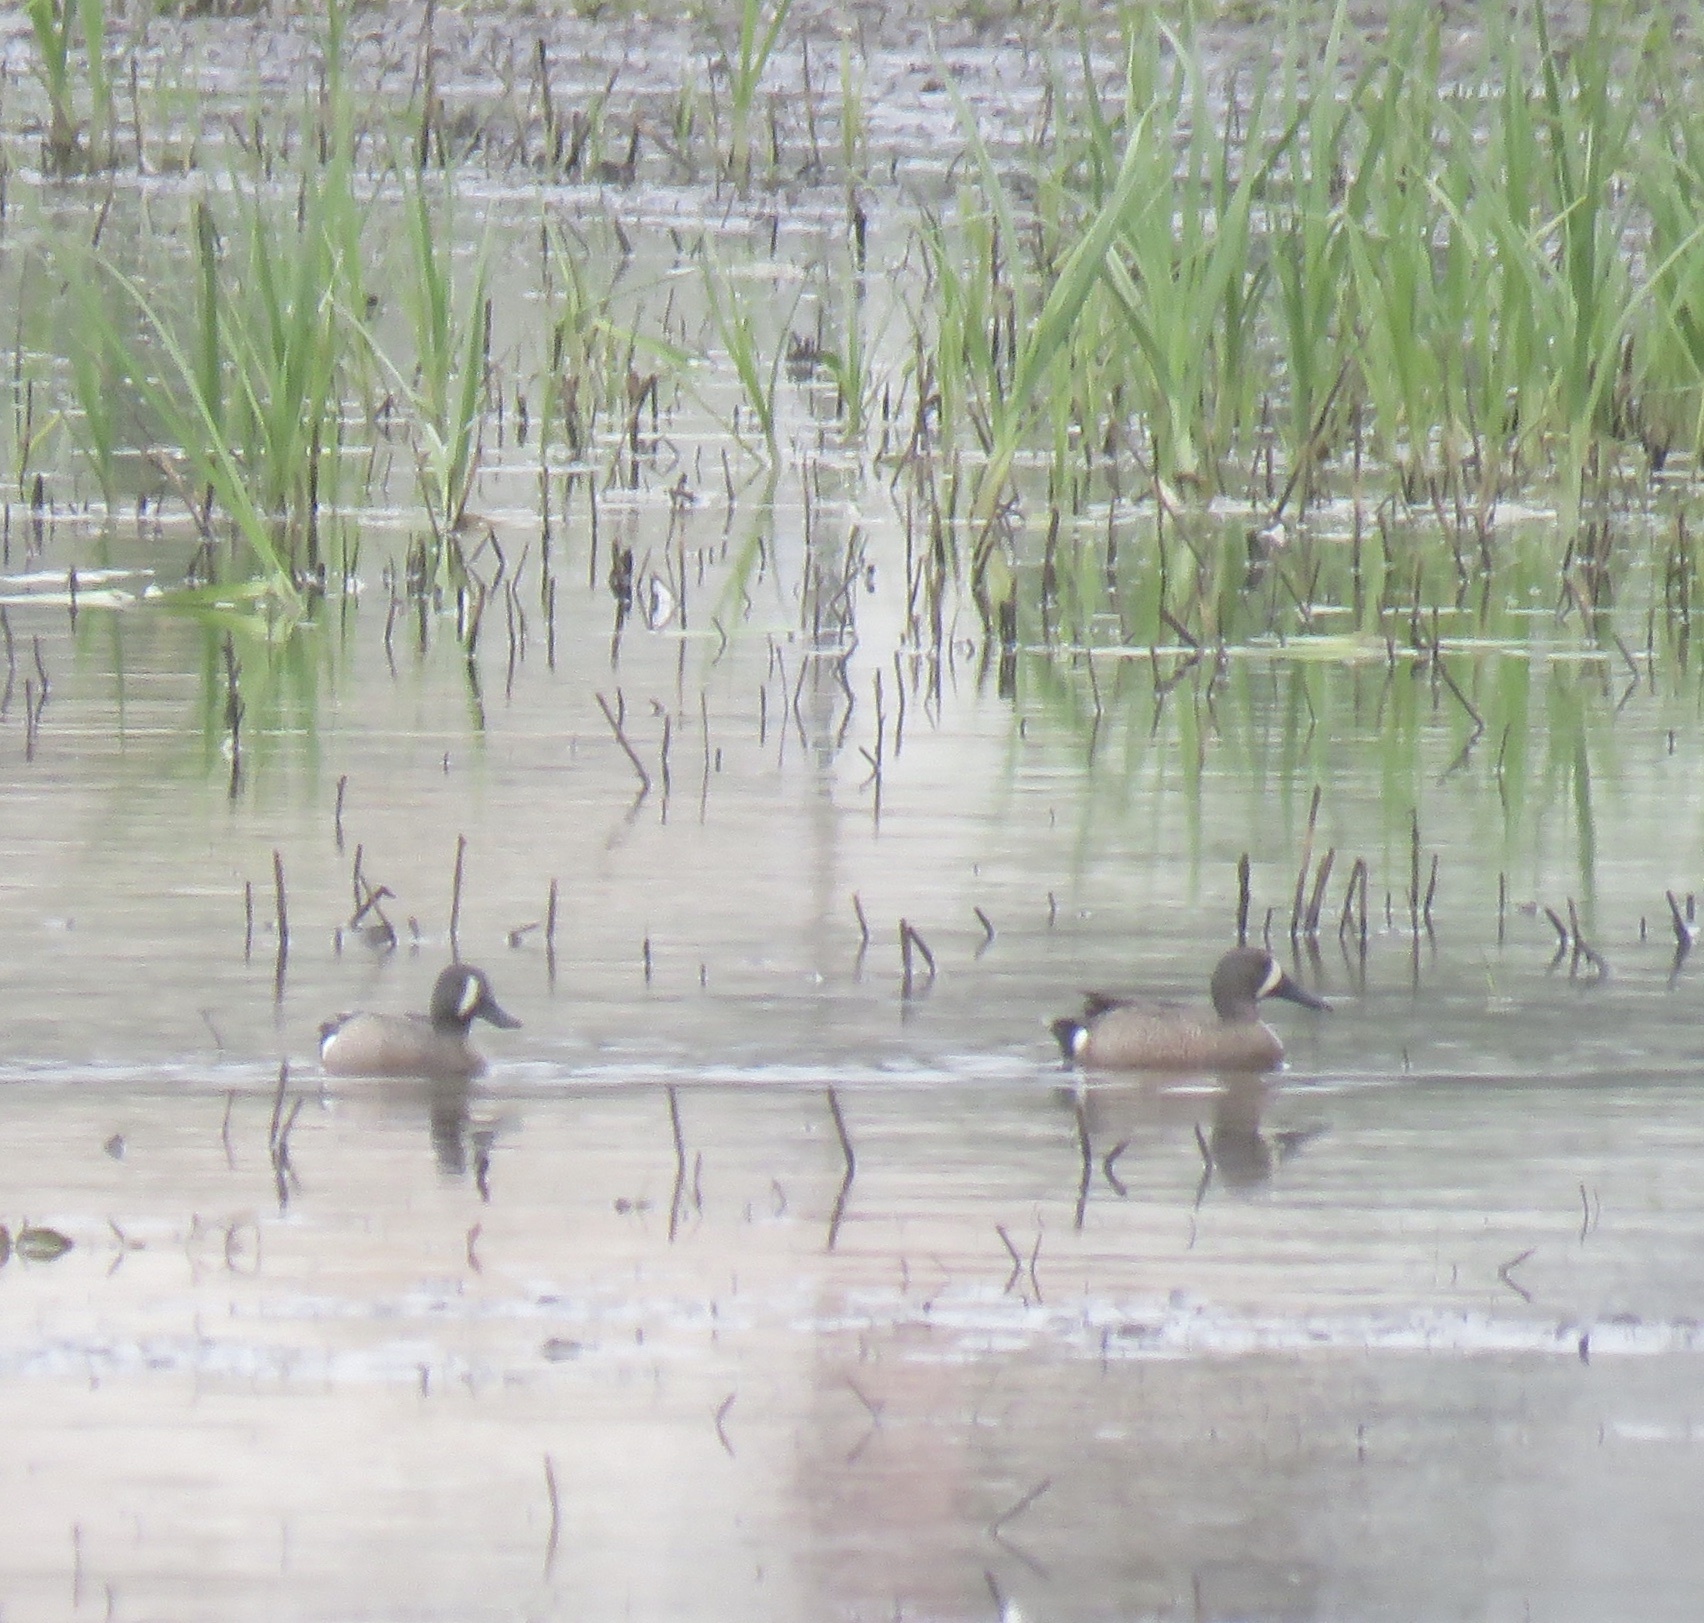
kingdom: Animalia
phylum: Chordata
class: Aves
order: Anseriformes
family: Anatidae
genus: Spatula
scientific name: Spatula discors
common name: Blue-winged teal
